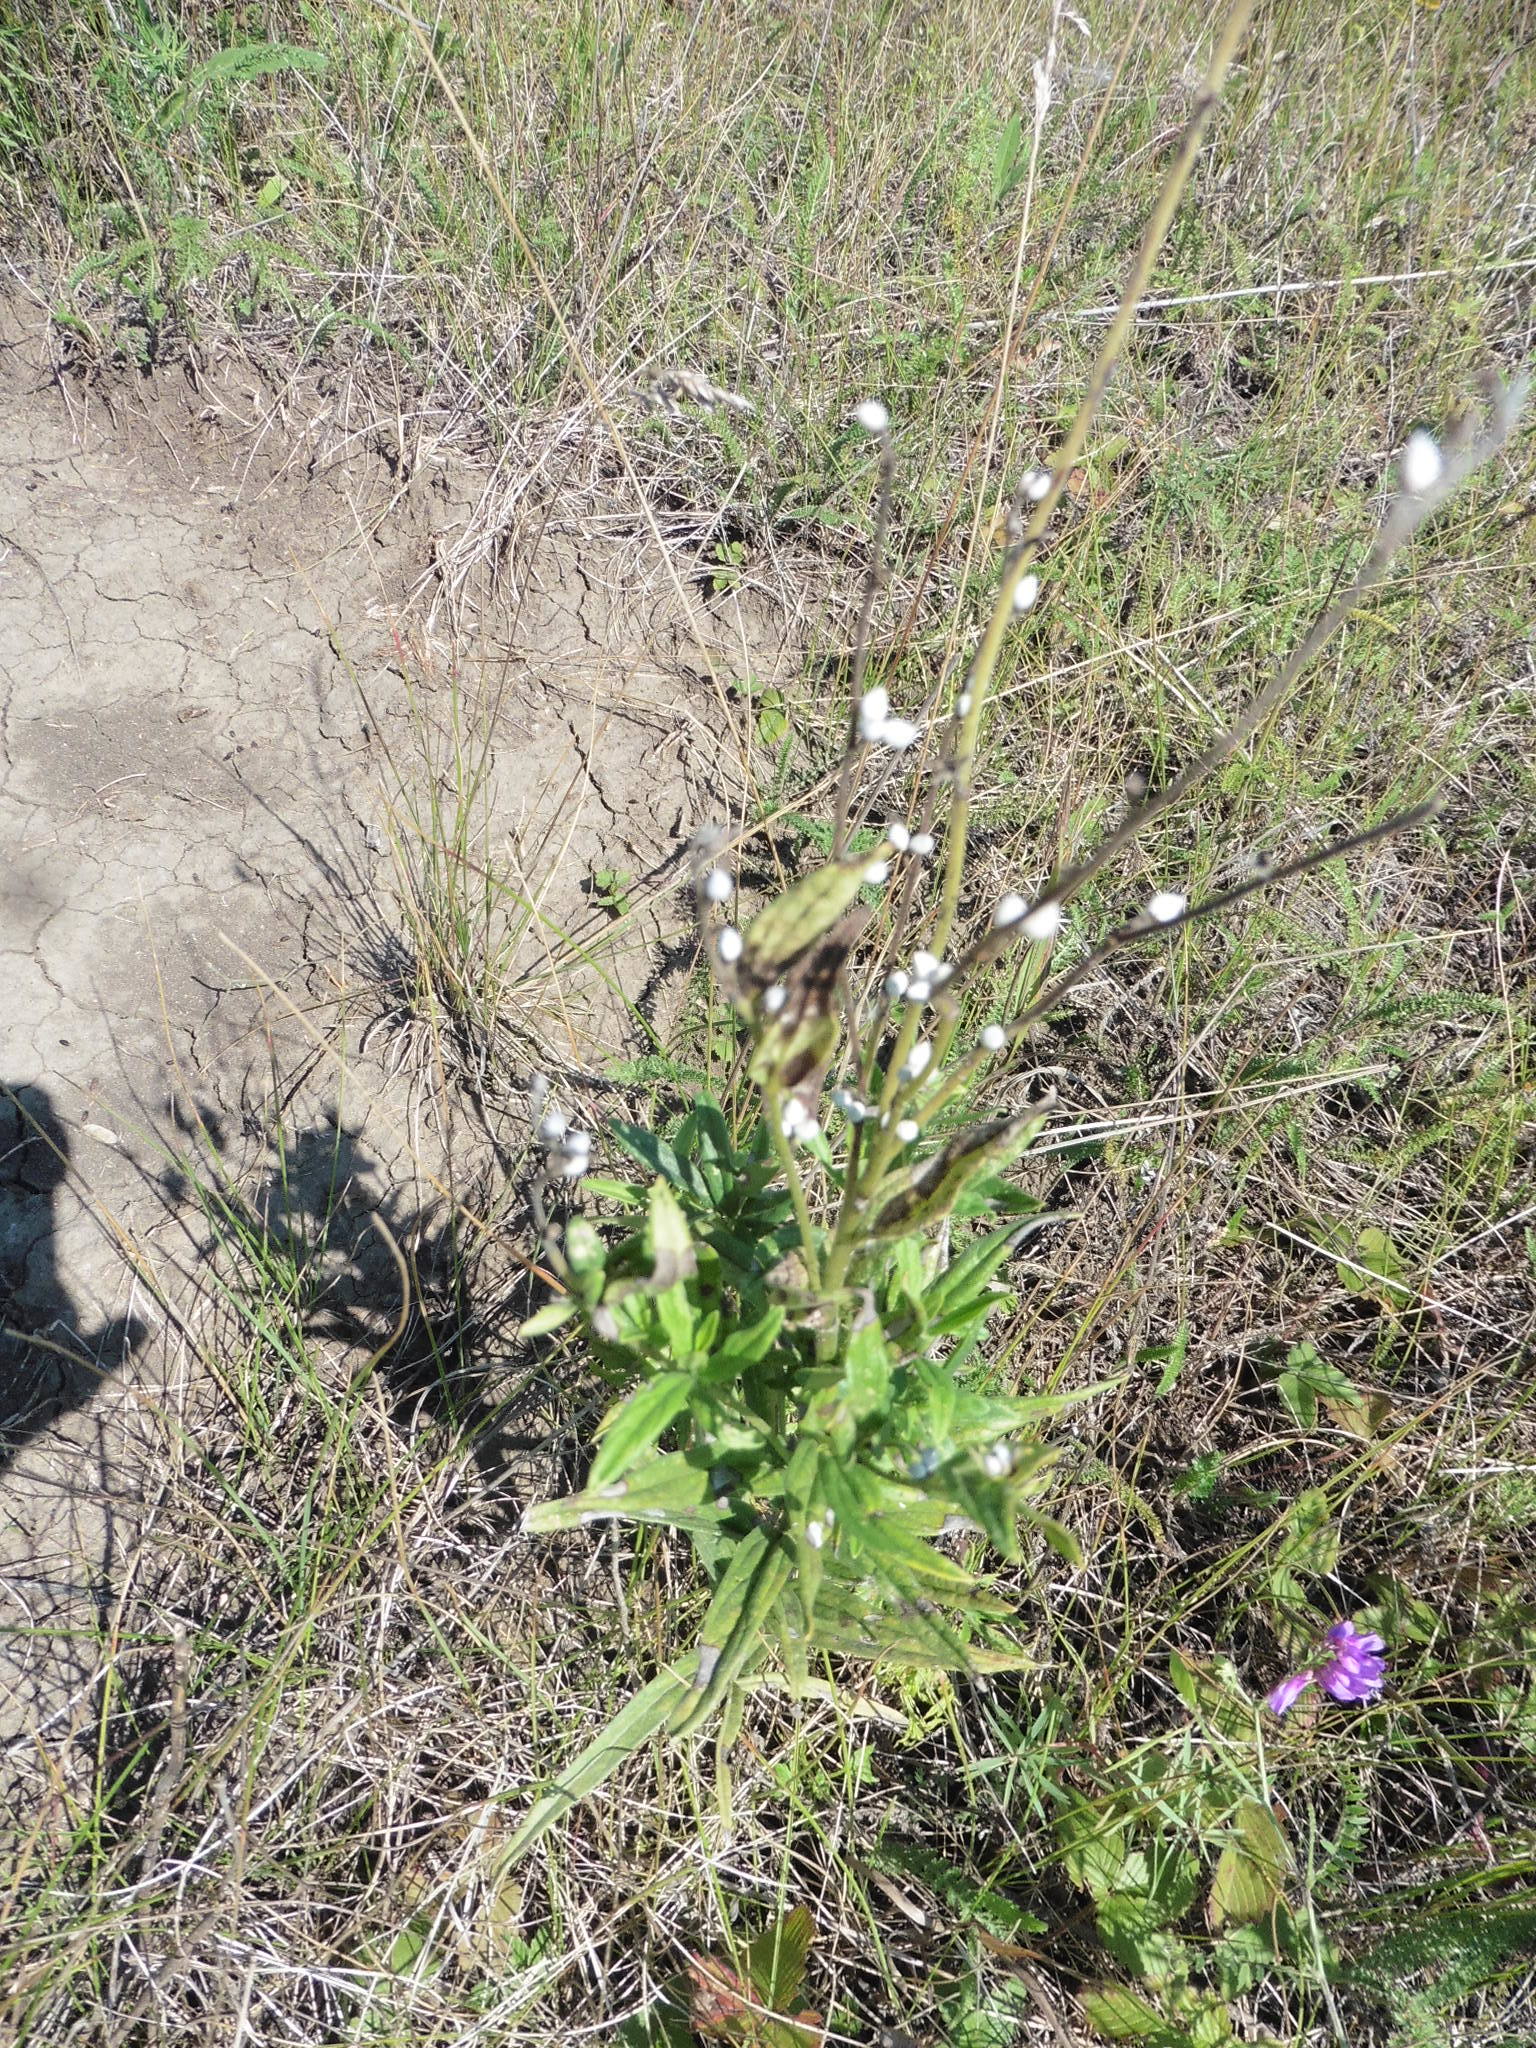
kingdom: Plantae
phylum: Tracheophyta
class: Magnoliopsida
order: Boraginales
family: Boraginaceae
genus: Lithospermum
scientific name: Lithospermum officinale
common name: Common gromwell
